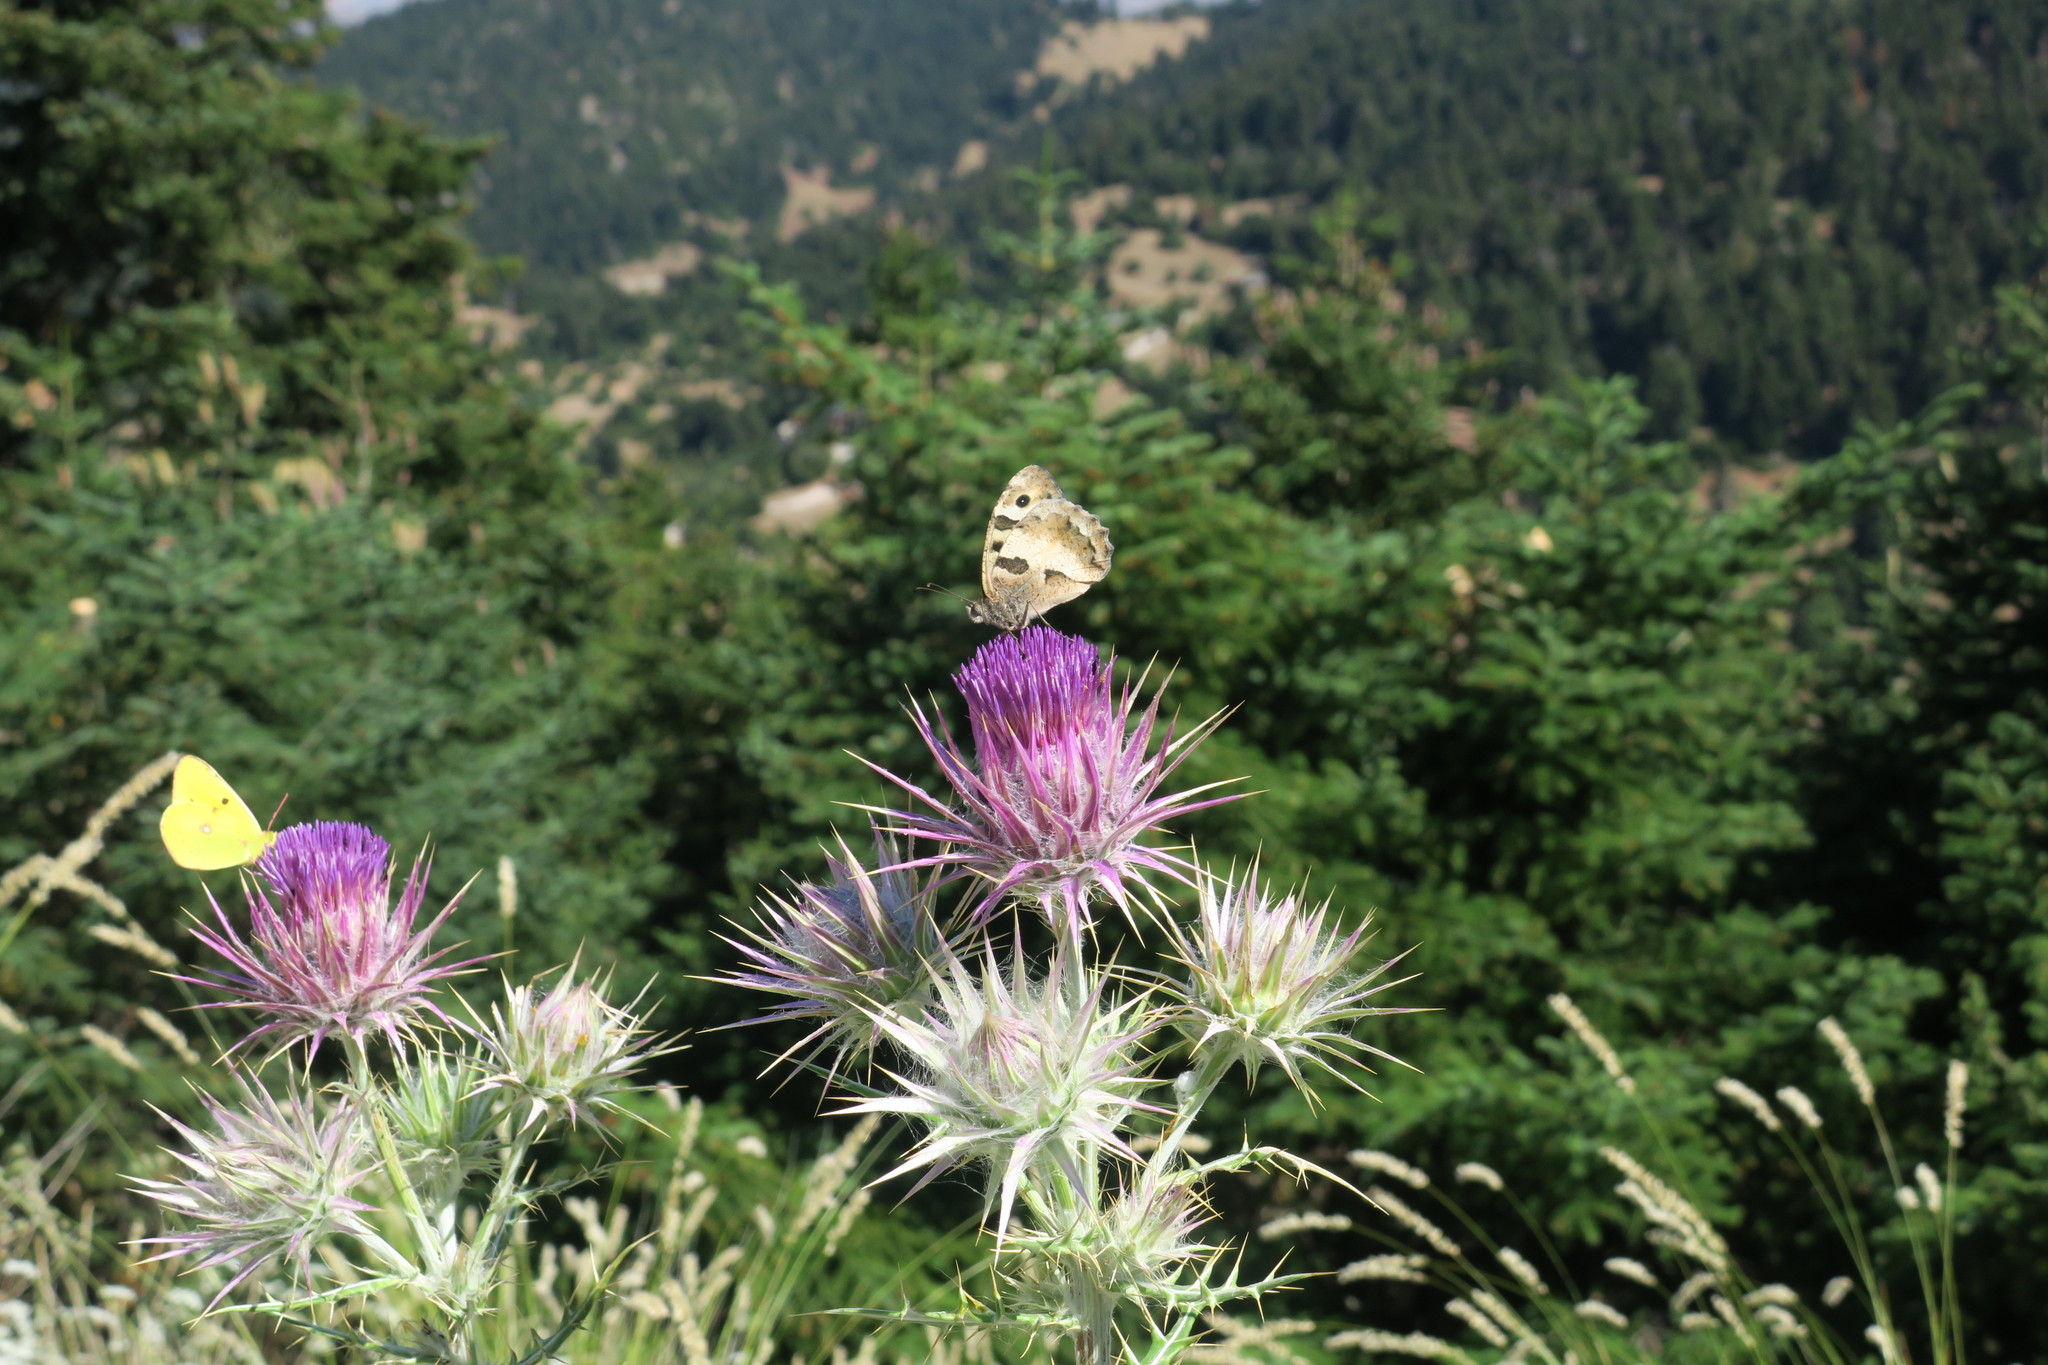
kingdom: Animalia
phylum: Arthropoda
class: Insecta
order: Lepidoptera
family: Nymphalidae
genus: Satyrus
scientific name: Satyrus briseis
